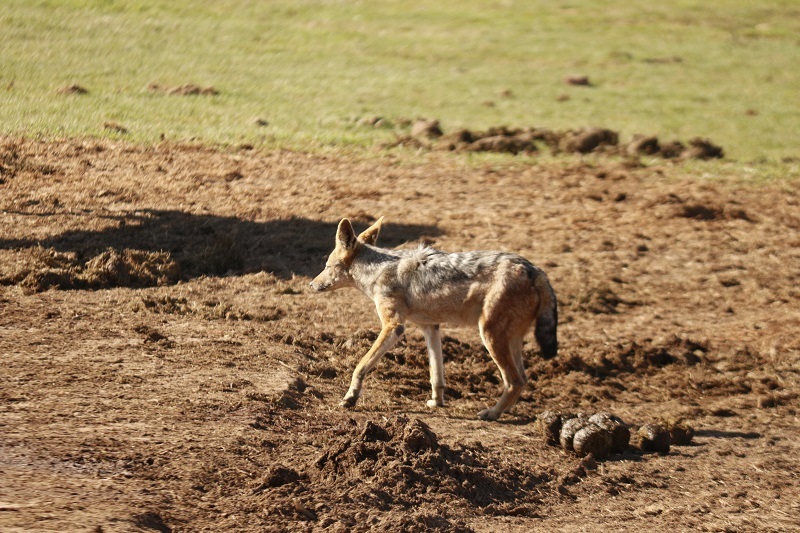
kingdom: Animalia
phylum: Chordata
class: Mammalia
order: Carnivora
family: Canidae
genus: Lupulella
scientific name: Lupulella
